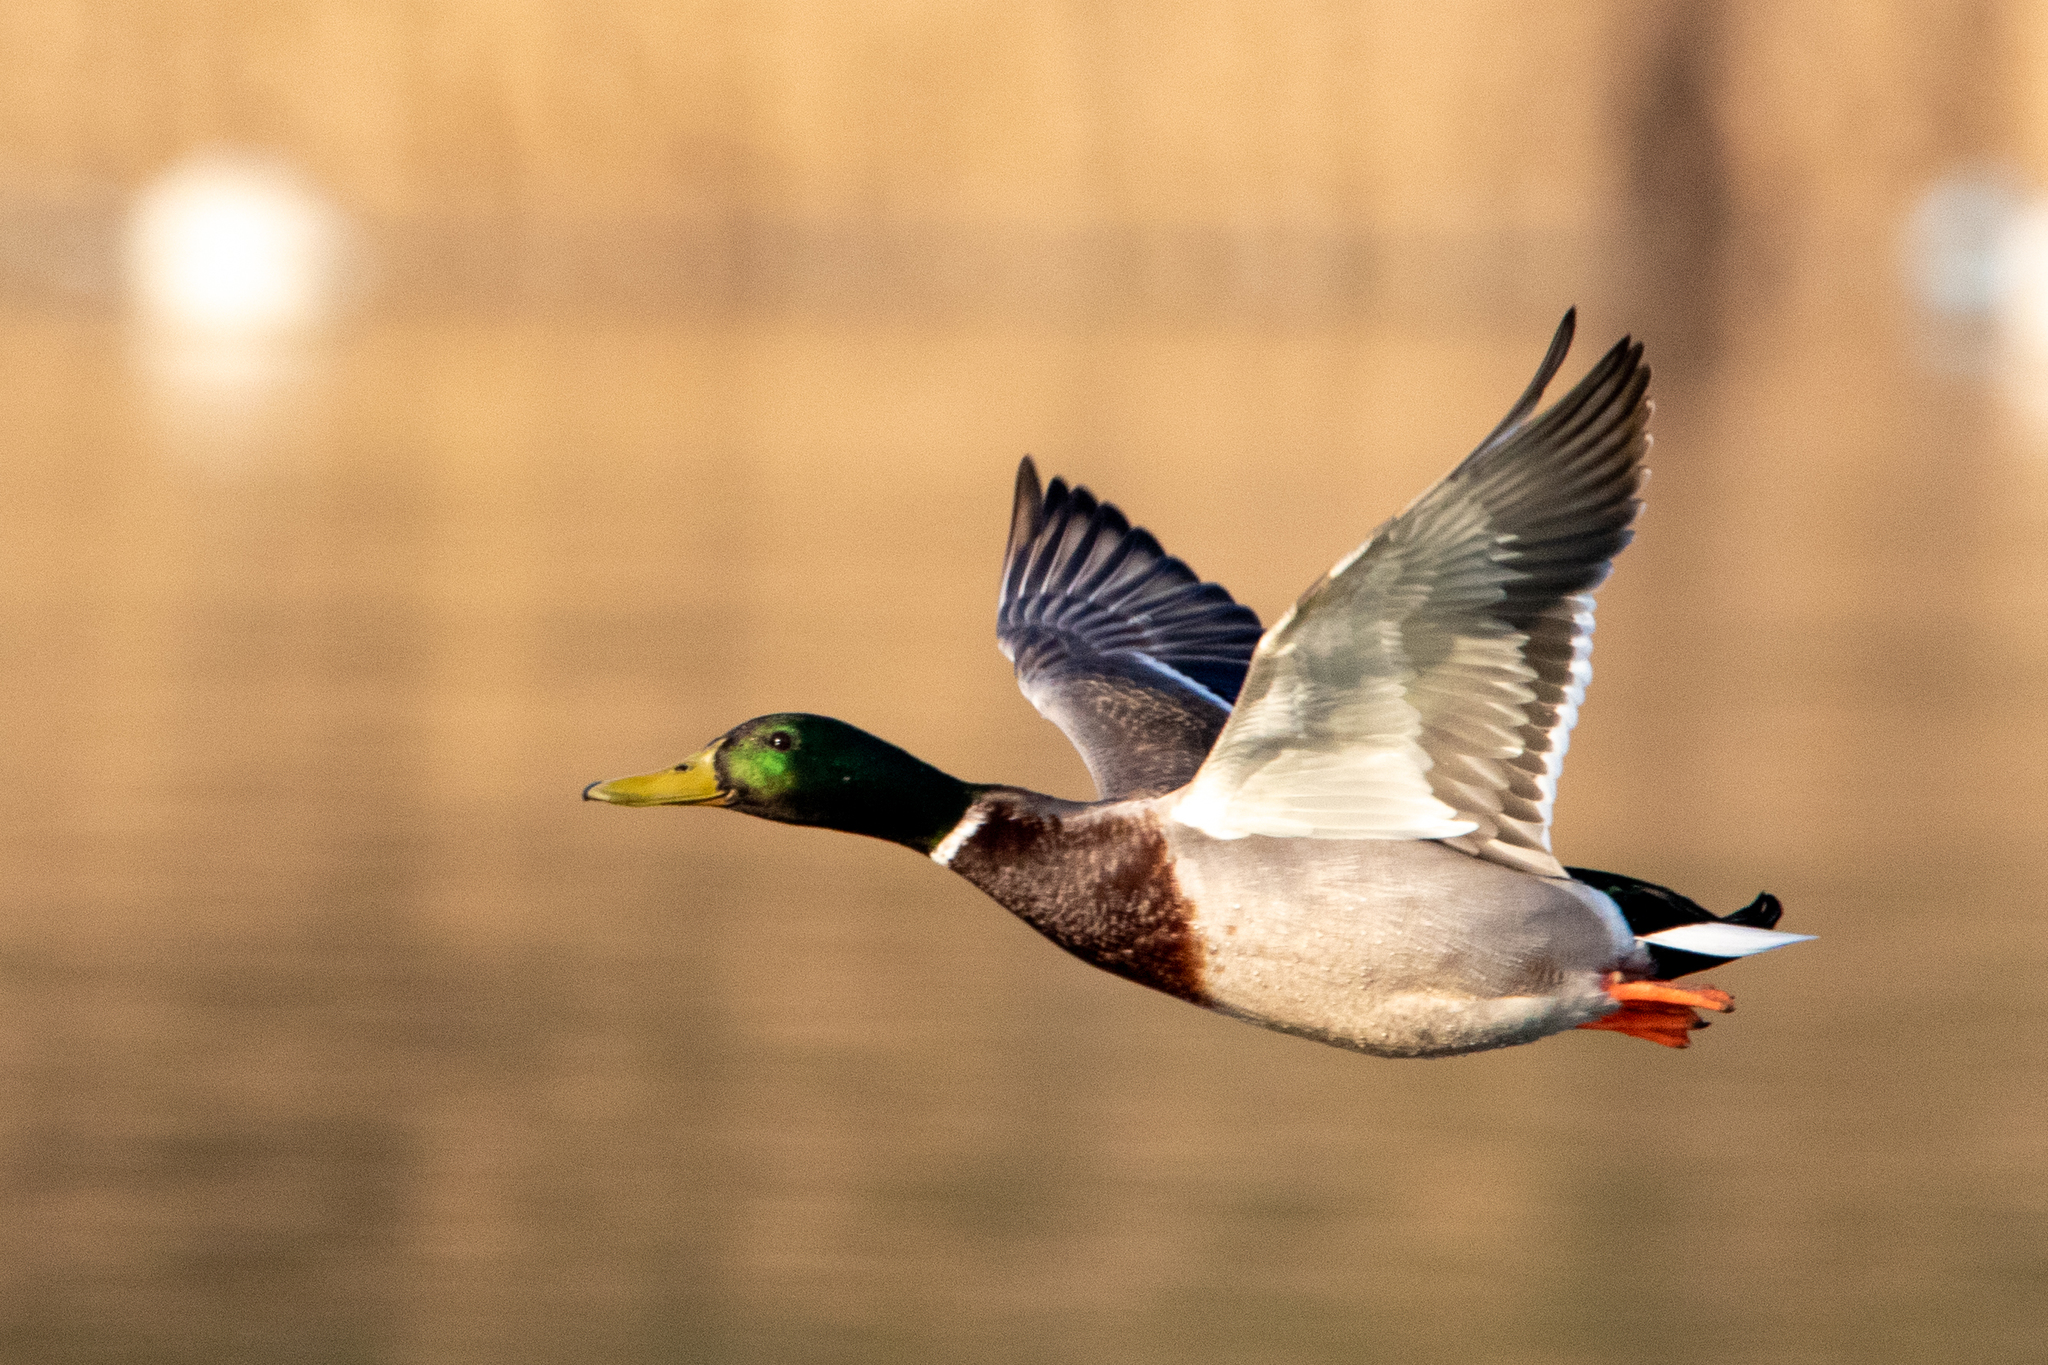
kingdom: Animalia
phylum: Chordata
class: Aves
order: Anseriformes
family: Anatidae
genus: Anas
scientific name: Anas platyrhynchos
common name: Mallard
